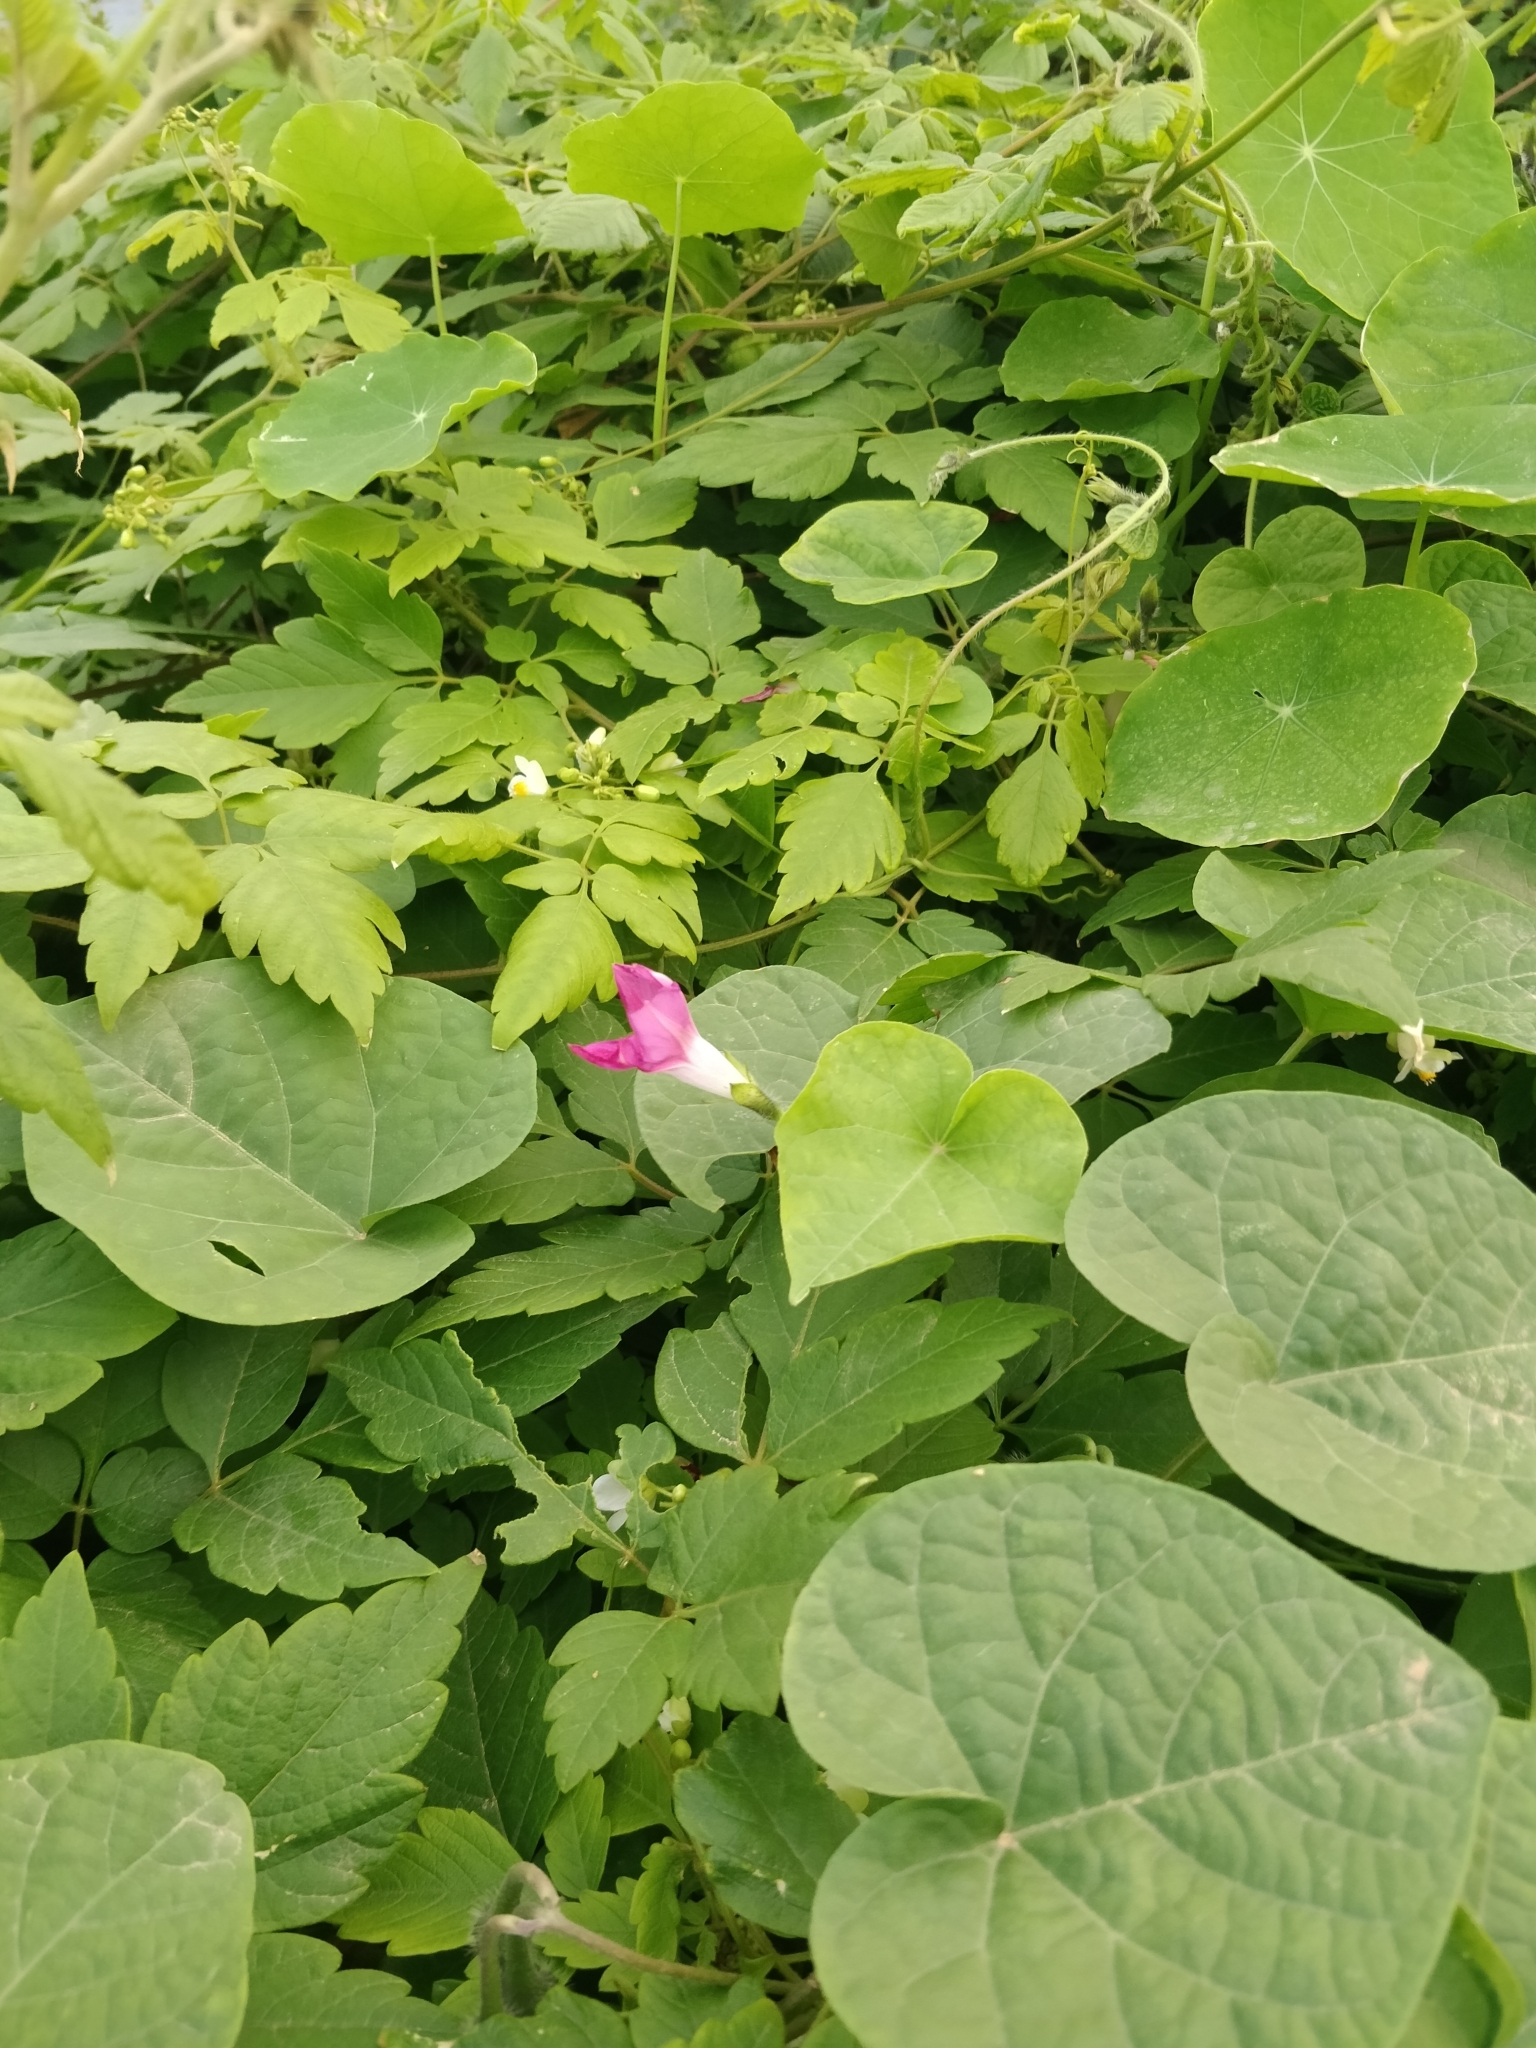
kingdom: Plantae
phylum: Tracheophyta
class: Magnoliopsida
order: Solanales
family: Convolvulaceae
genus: Ipomoea
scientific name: Ipomoea purpurea
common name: Common morning-glory
